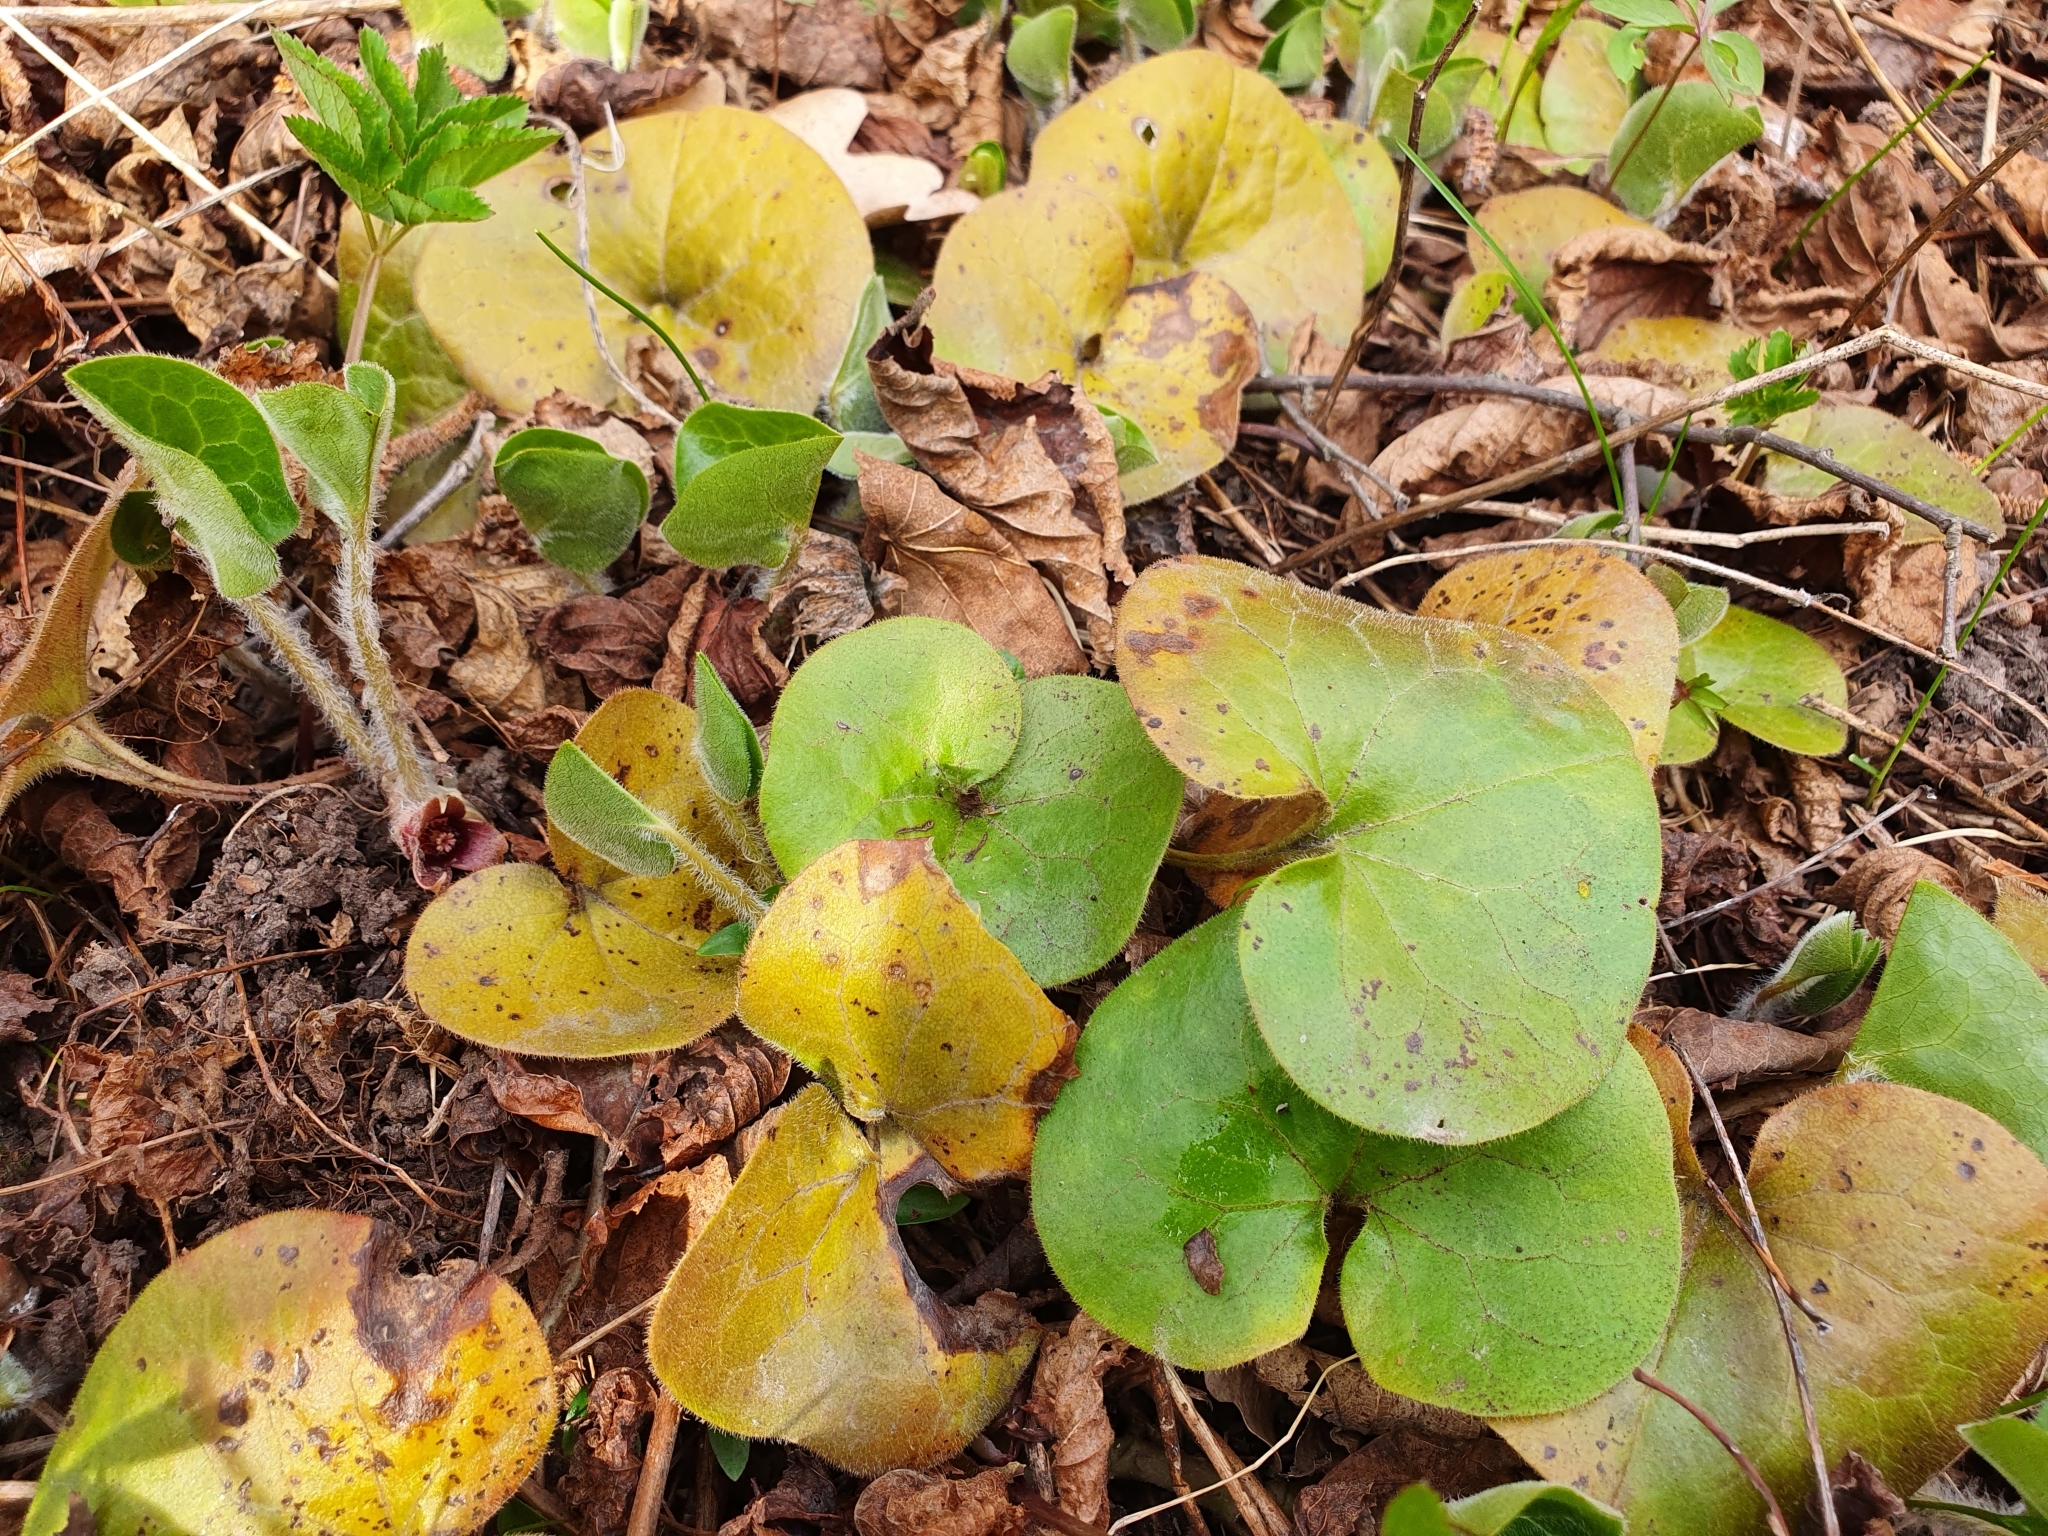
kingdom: Plantae
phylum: Tracheophyta
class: Magnoliopsida
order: Piperales
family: Aristolochiaceae
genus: Asarum
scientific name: Asarum europaeum
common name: Asarabacca
